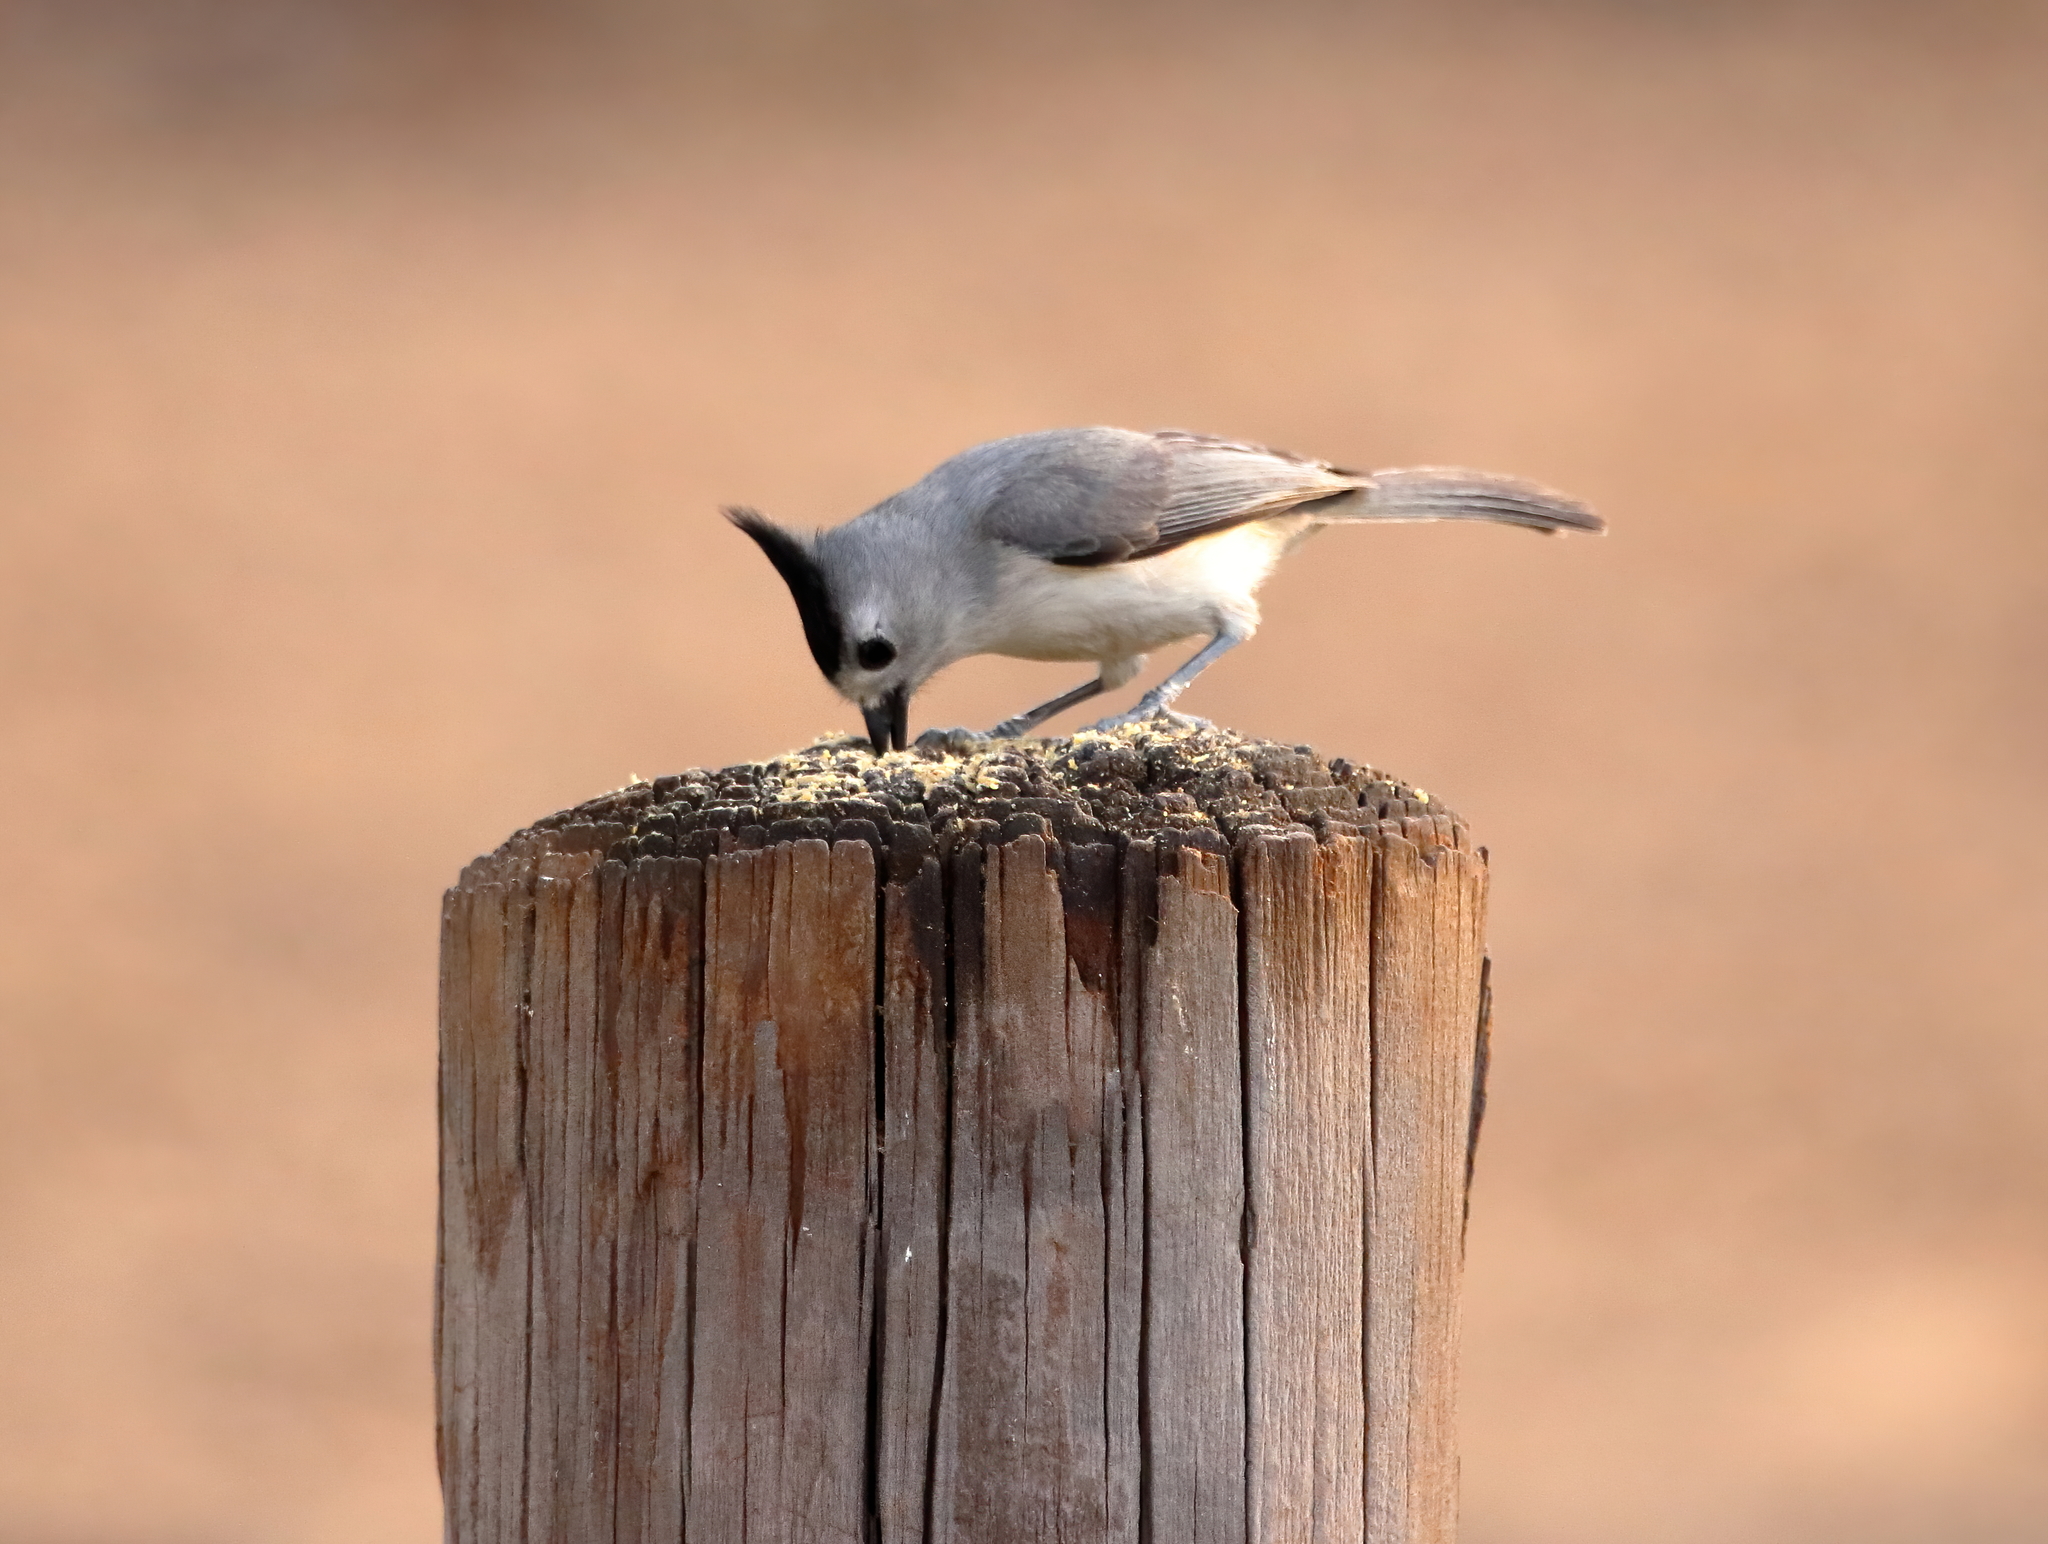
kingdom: Animalia
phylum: Chordata
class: Aves
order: Passeriformes
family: Paridae
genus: Baeolophus
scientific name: Baeolophus atricristatus
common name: Black-crested titmouse
